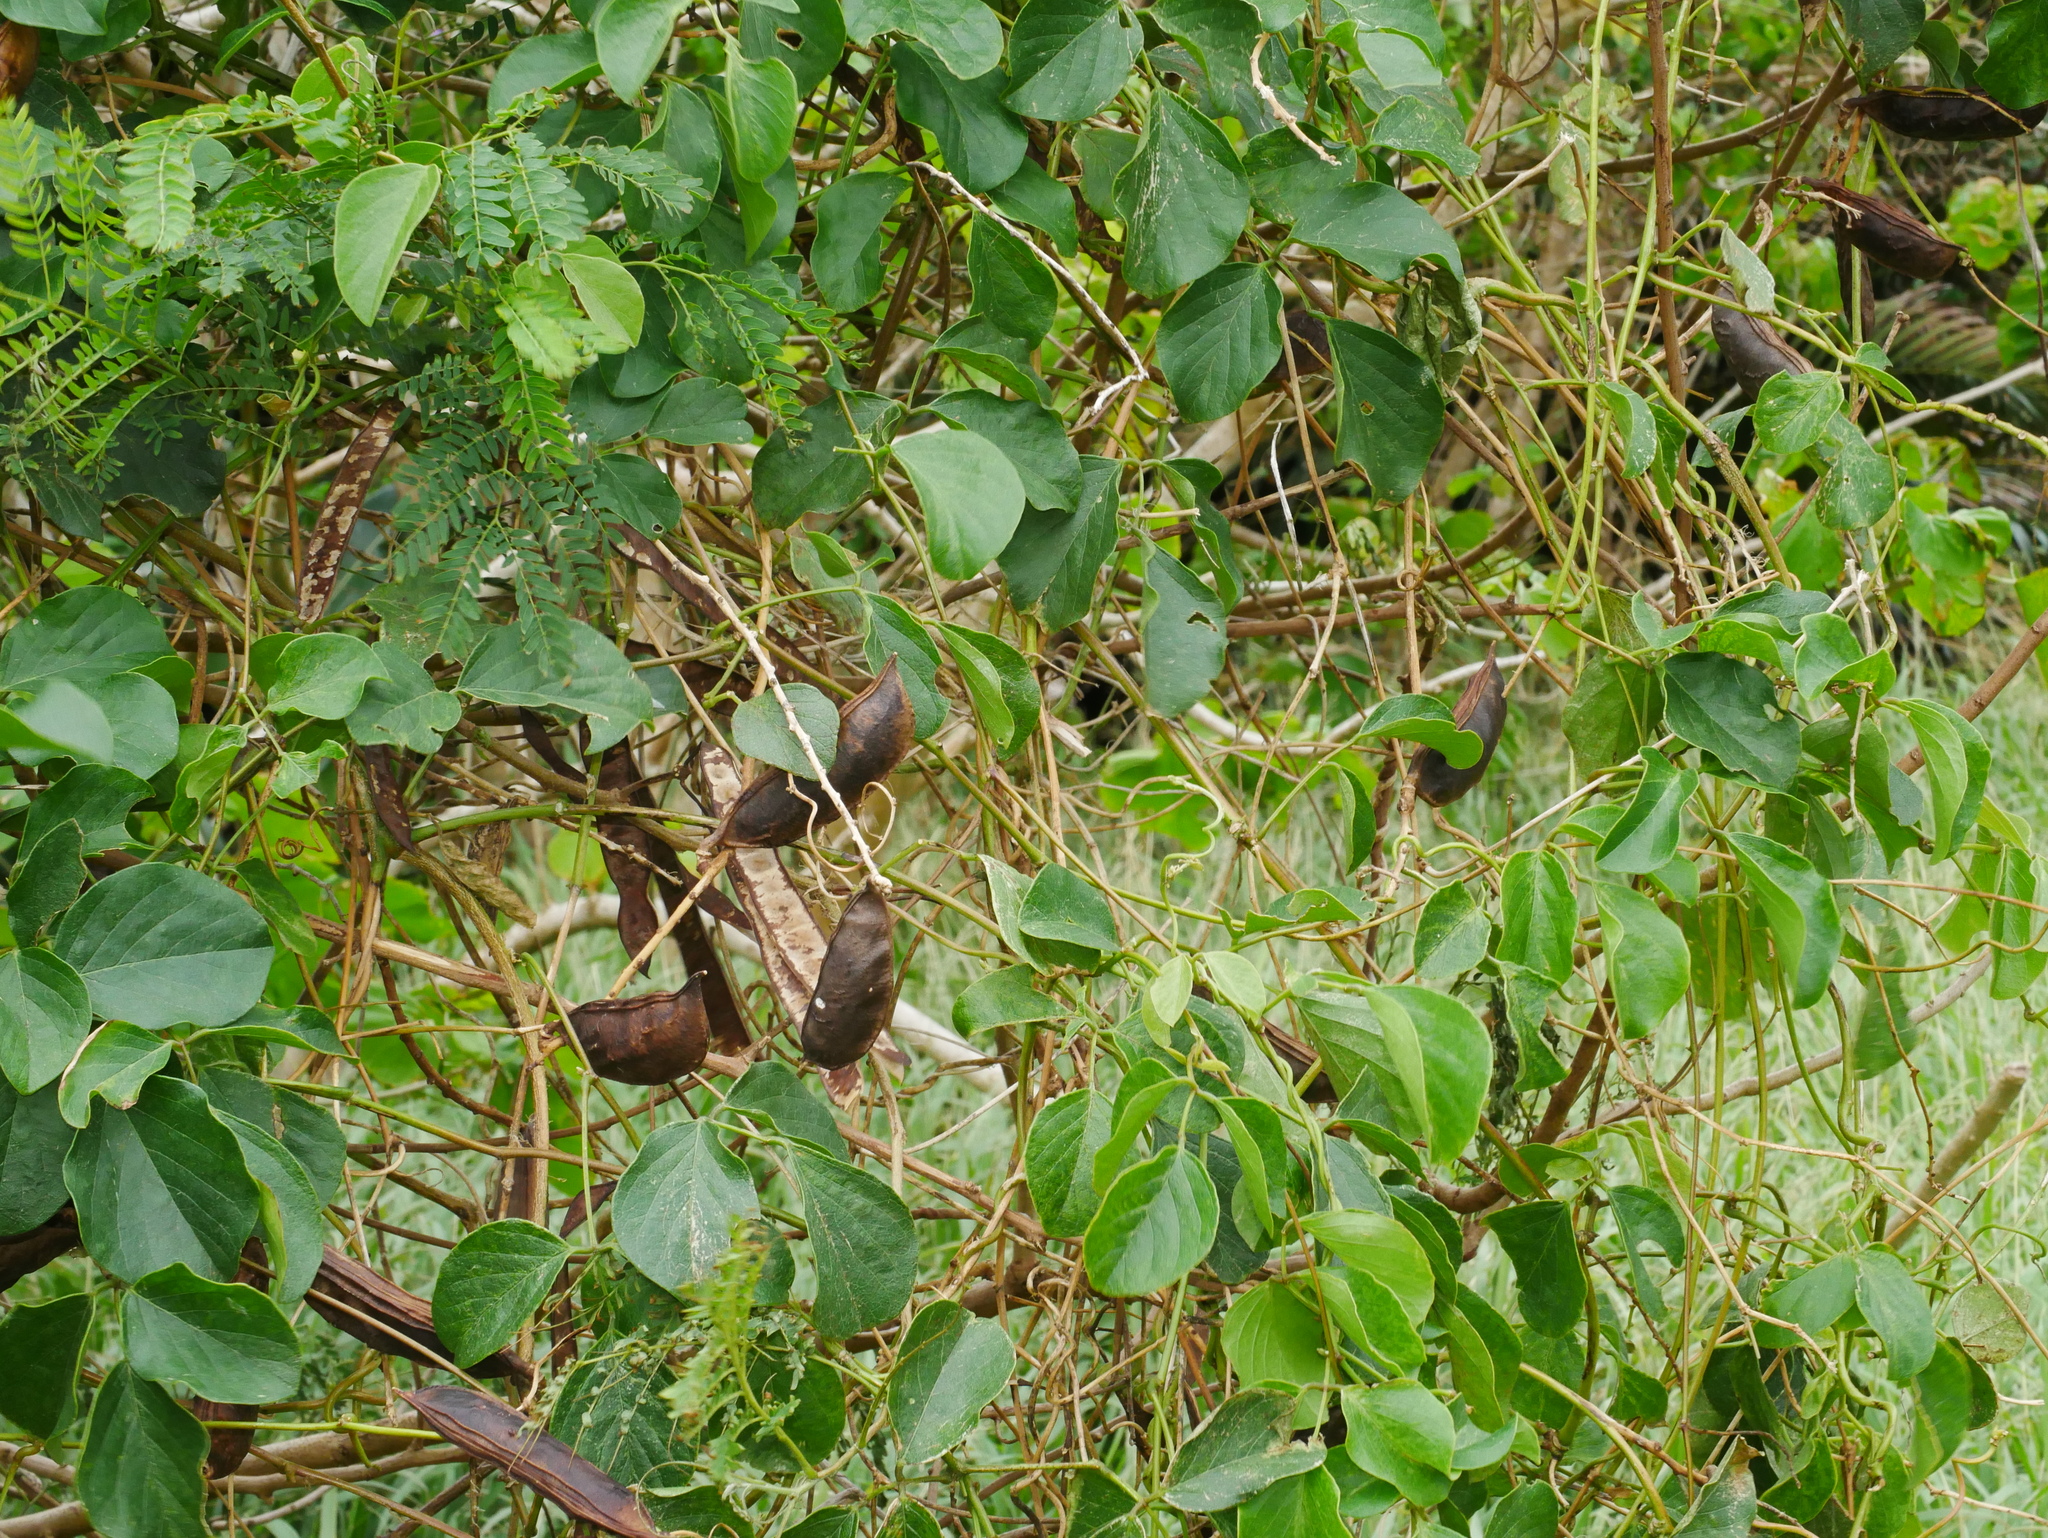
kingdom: Plantae
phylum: Tracheophyta
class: Magnoliopsida
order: Fabales
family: Fabaceae
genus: Canavalia
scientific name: Canavalia lineata
